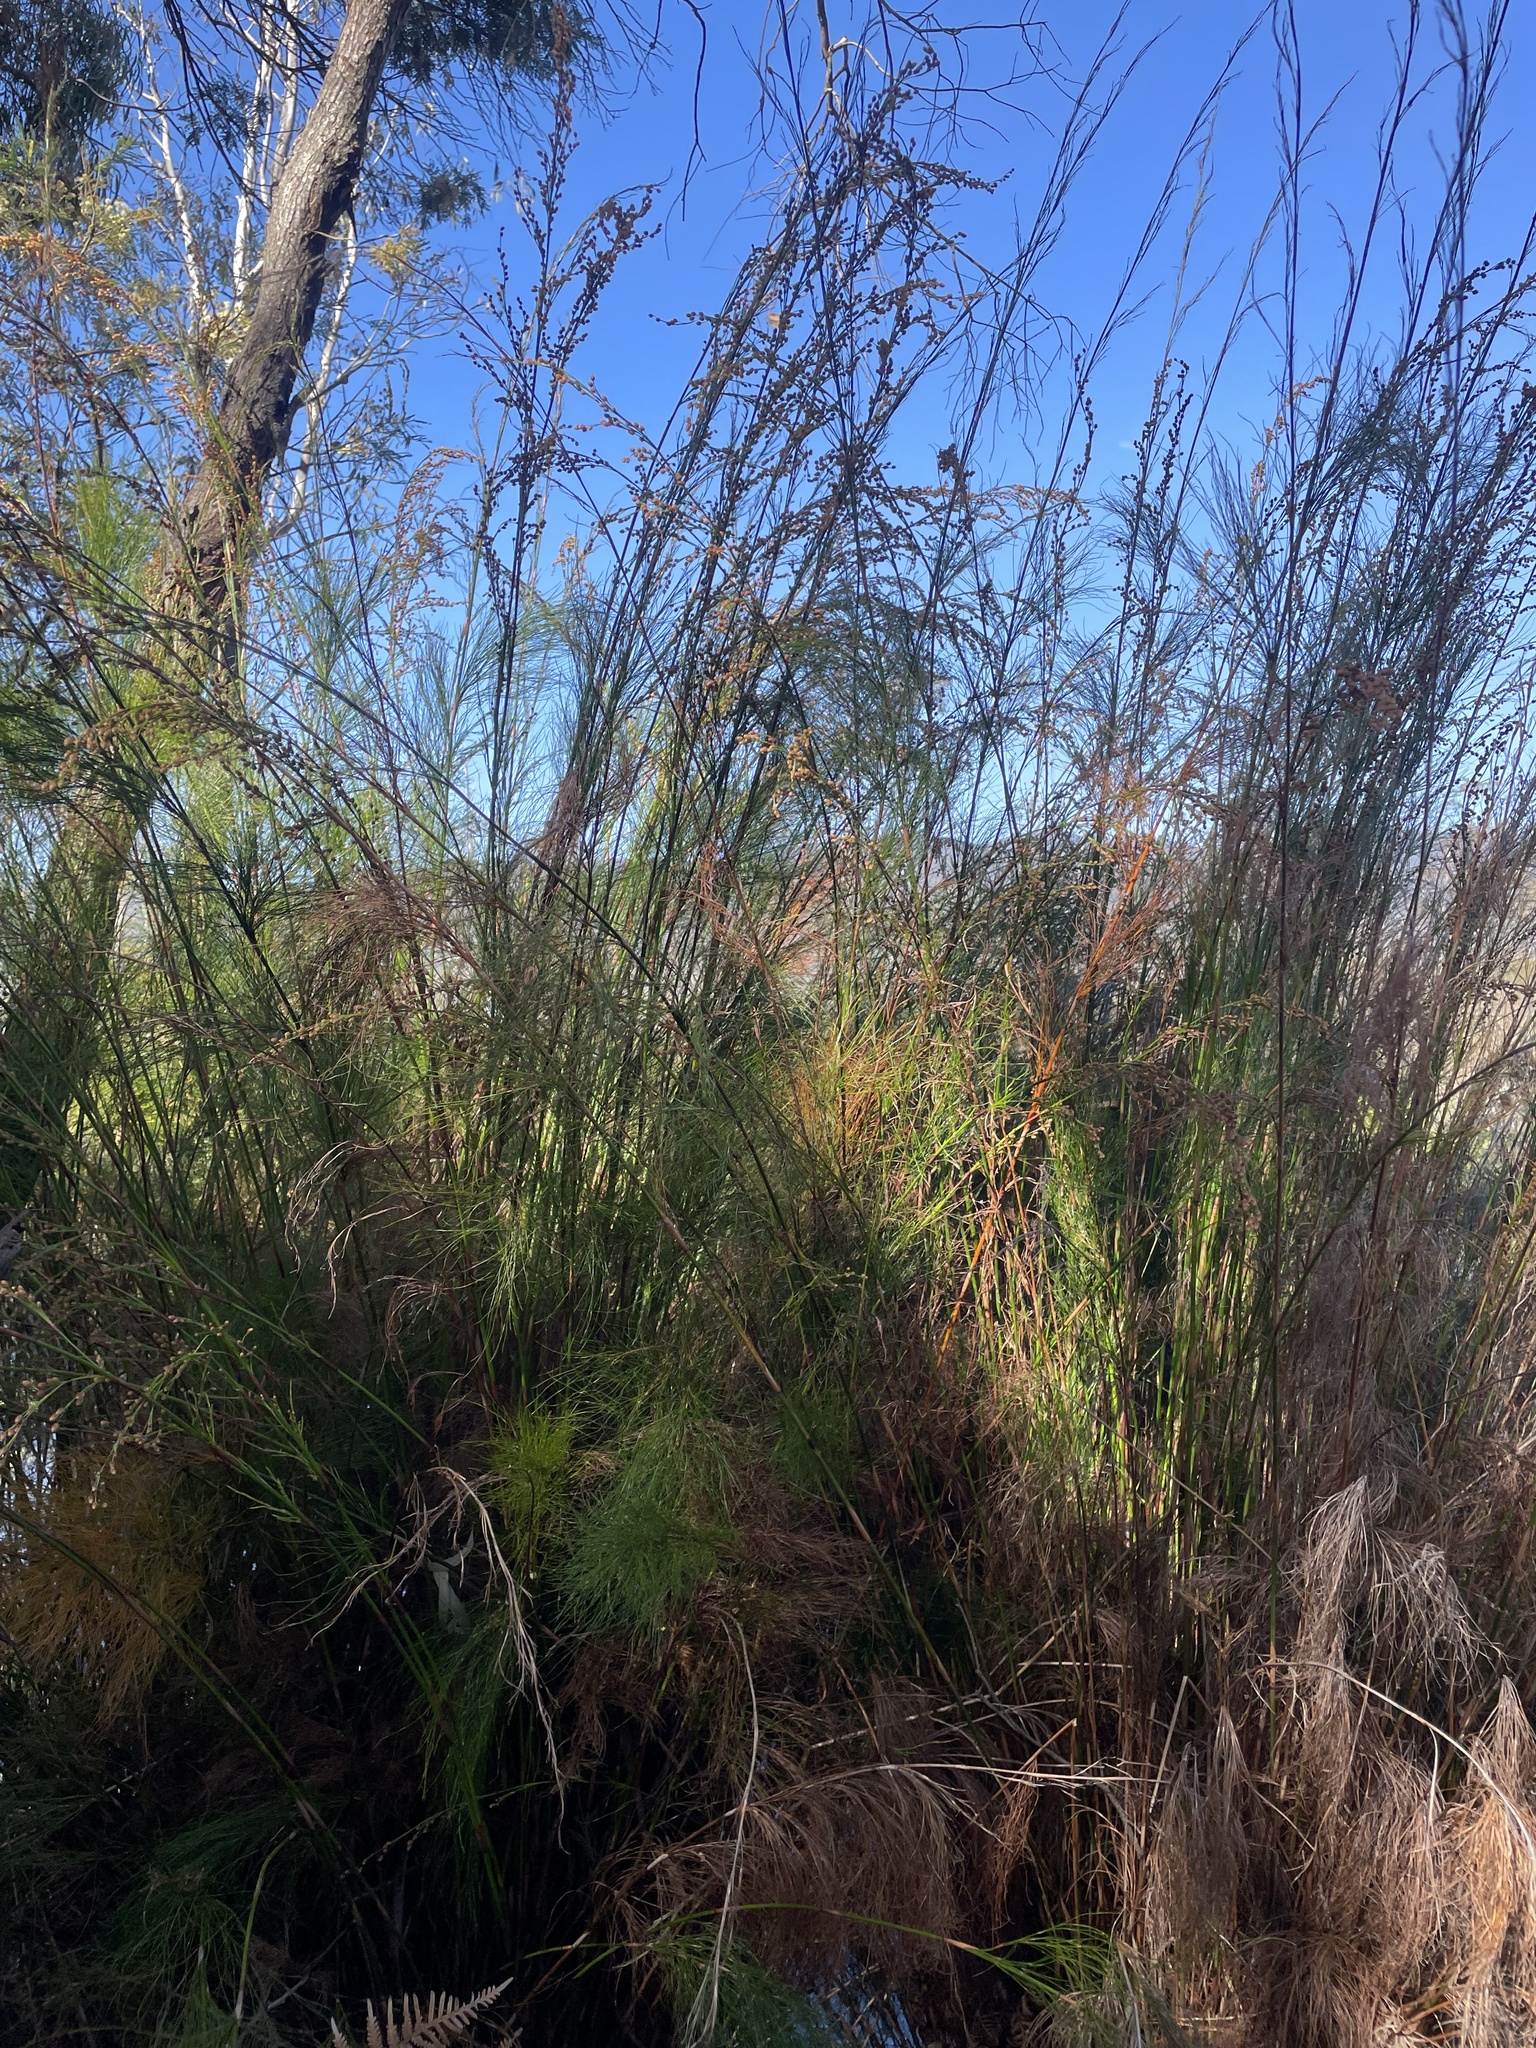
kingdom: Plantae
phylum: Tracheophyta
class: Liliopsida
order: Poales
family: Restionaceae
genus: Baloskion
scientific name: Baloskion tetraphyllum
